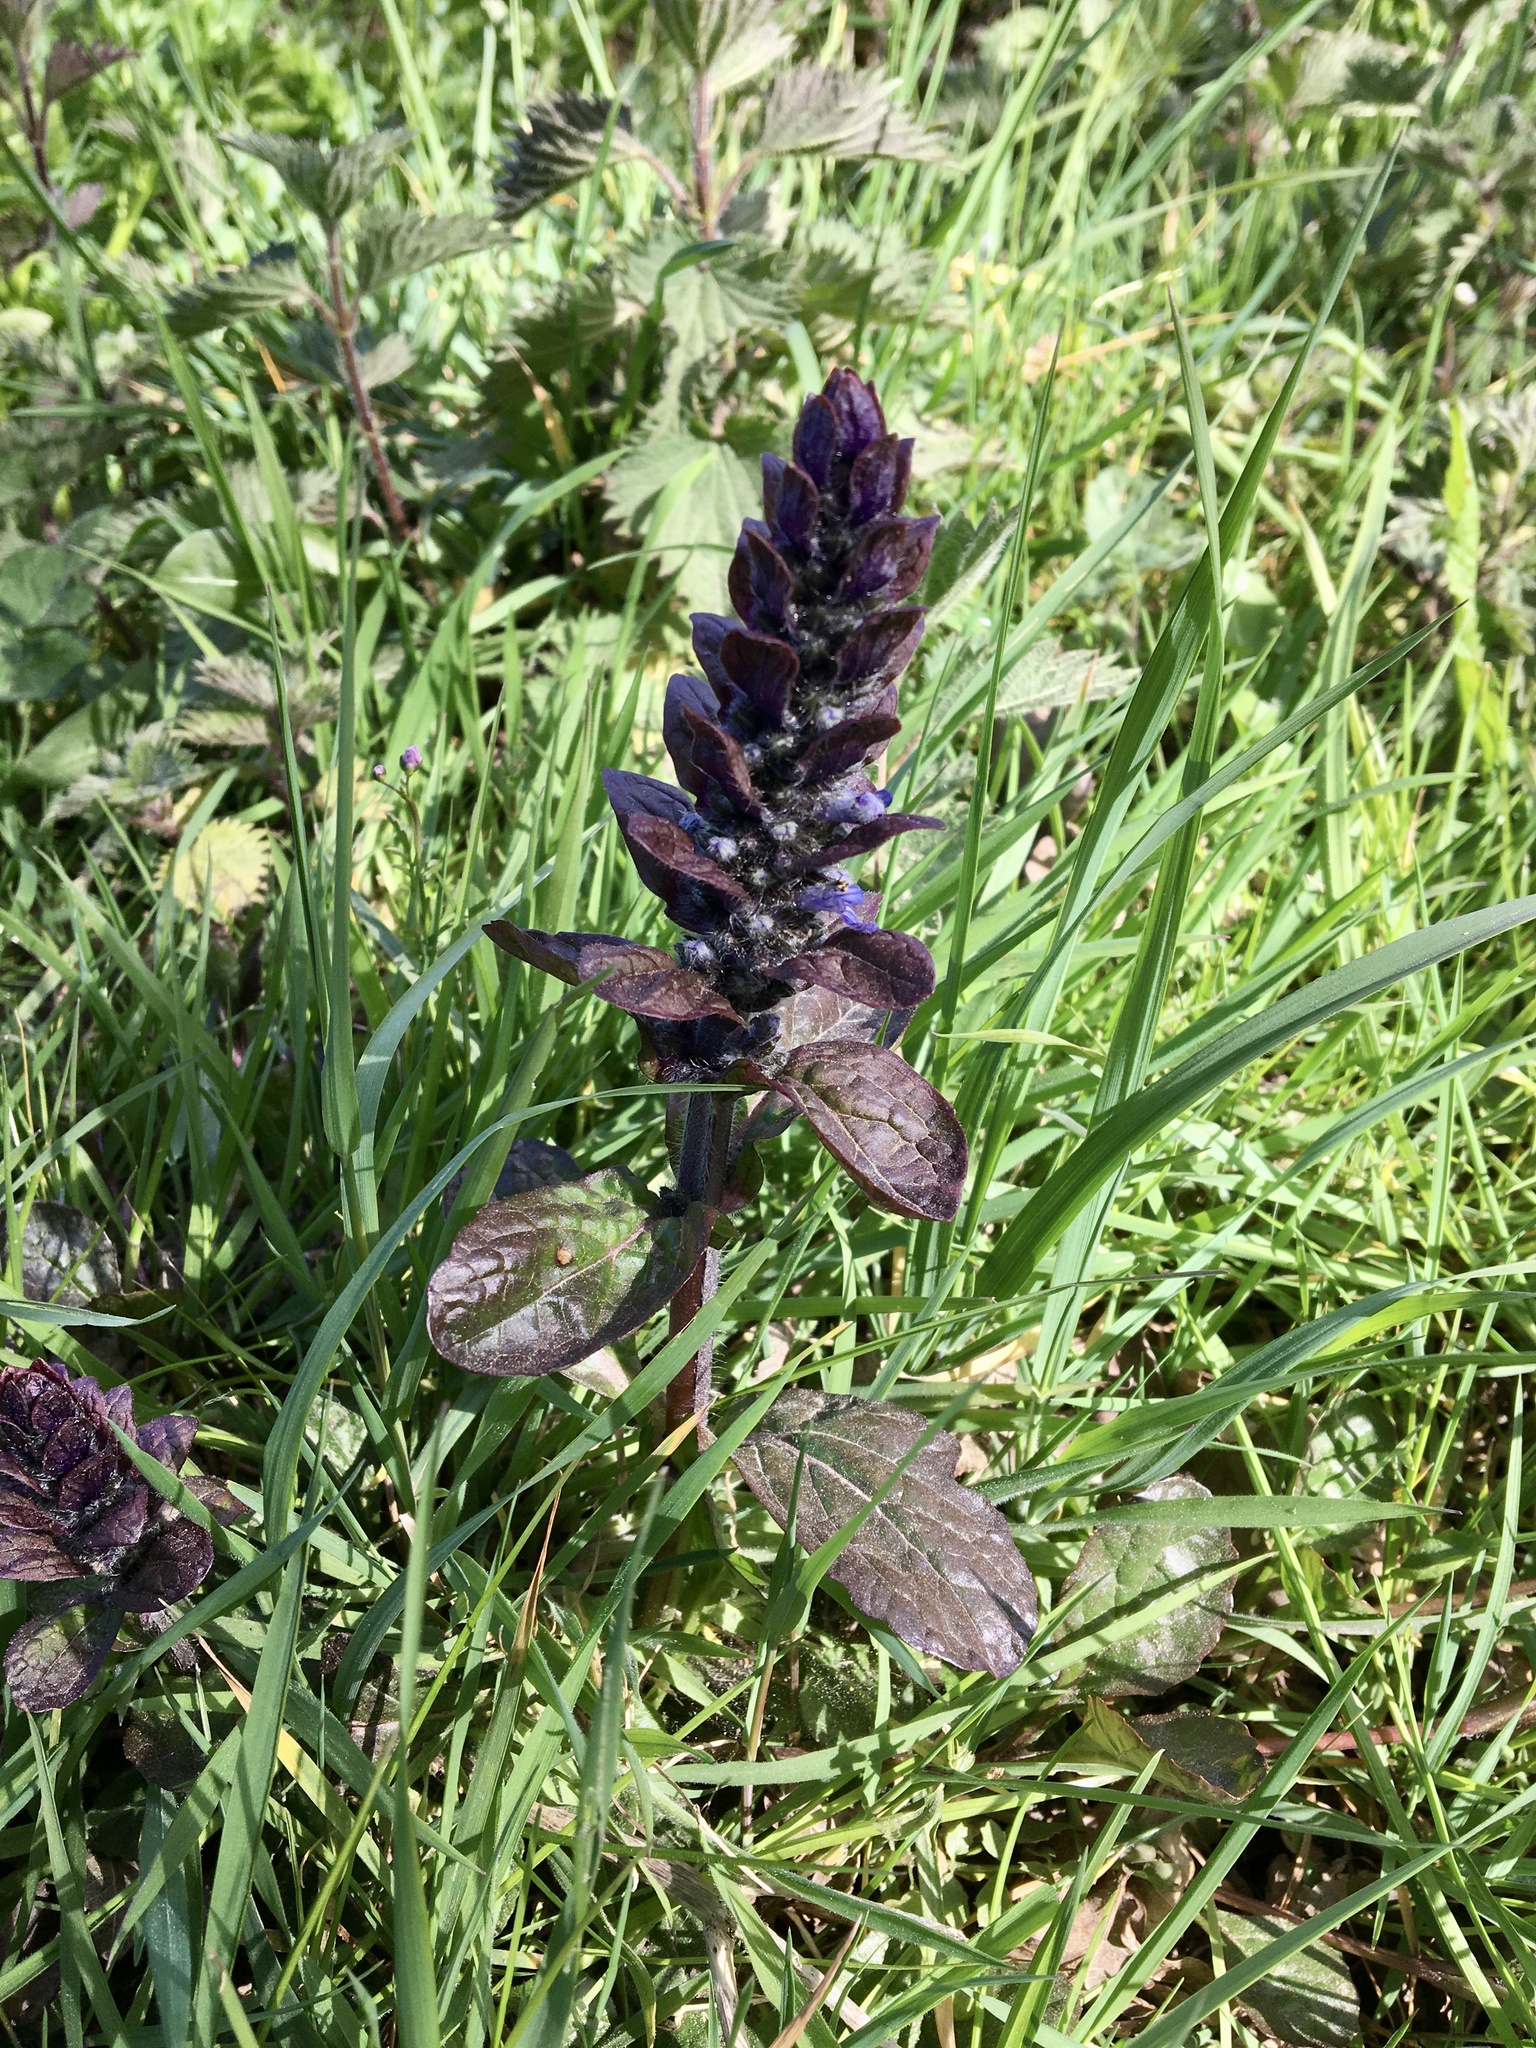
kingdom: Plantae
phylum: Tracheophyta
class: Magnoliopsida
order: Lamiales
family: Lamiaceae
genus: Ajuga
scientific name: Ajuga reptans
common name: Bugle
